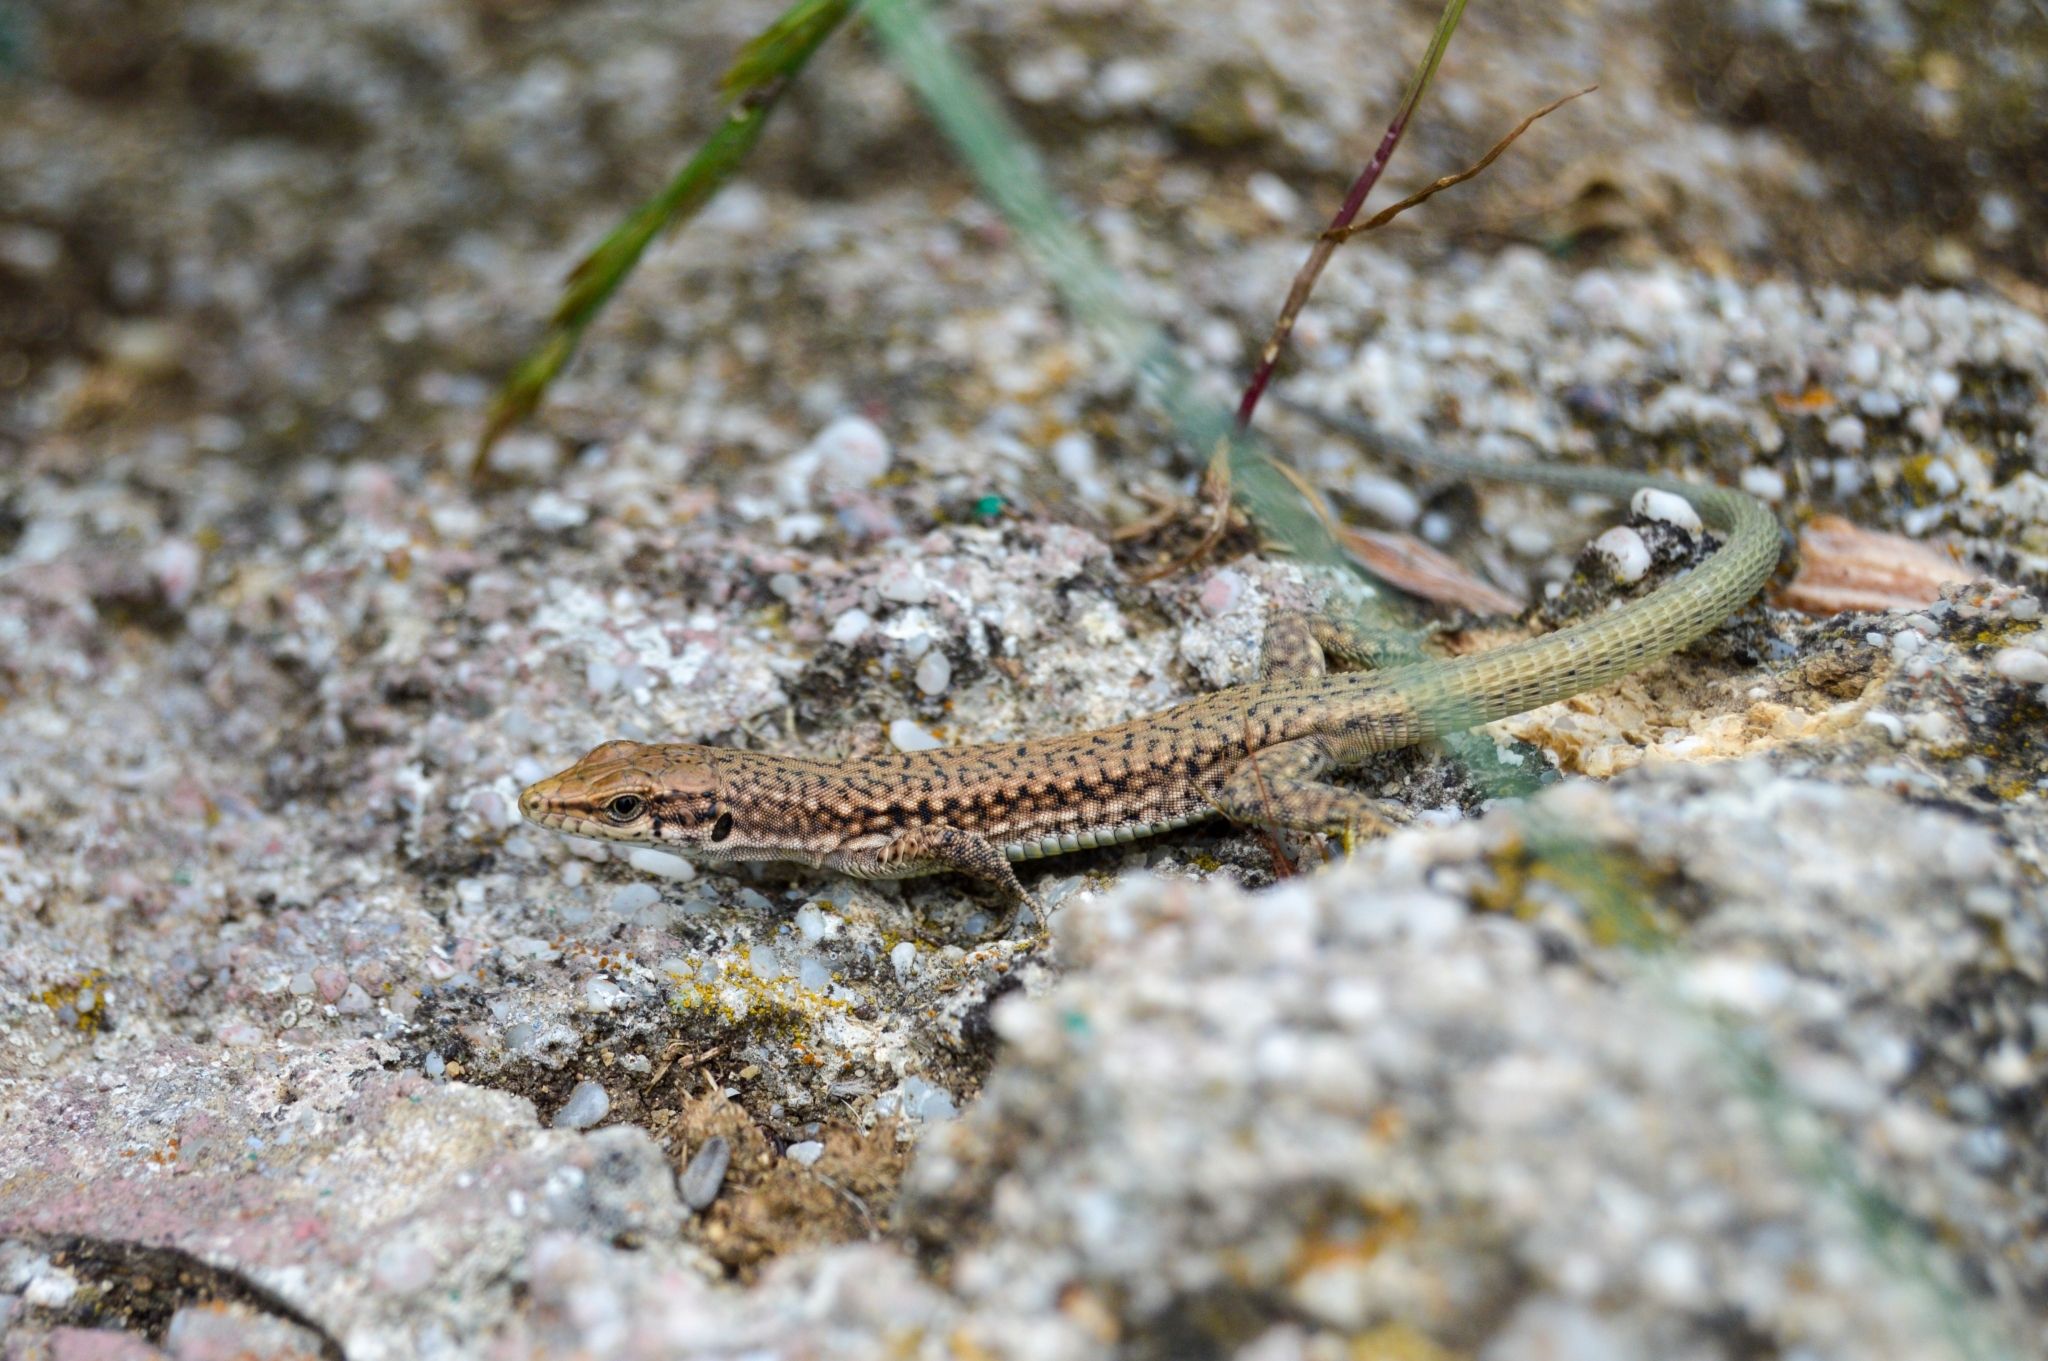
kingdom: Animalia
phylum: Chordata
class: Squamata
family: Lacertidae
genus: Darevskia
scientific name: Darevskia lindholmi
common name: Crimean rock lizard
